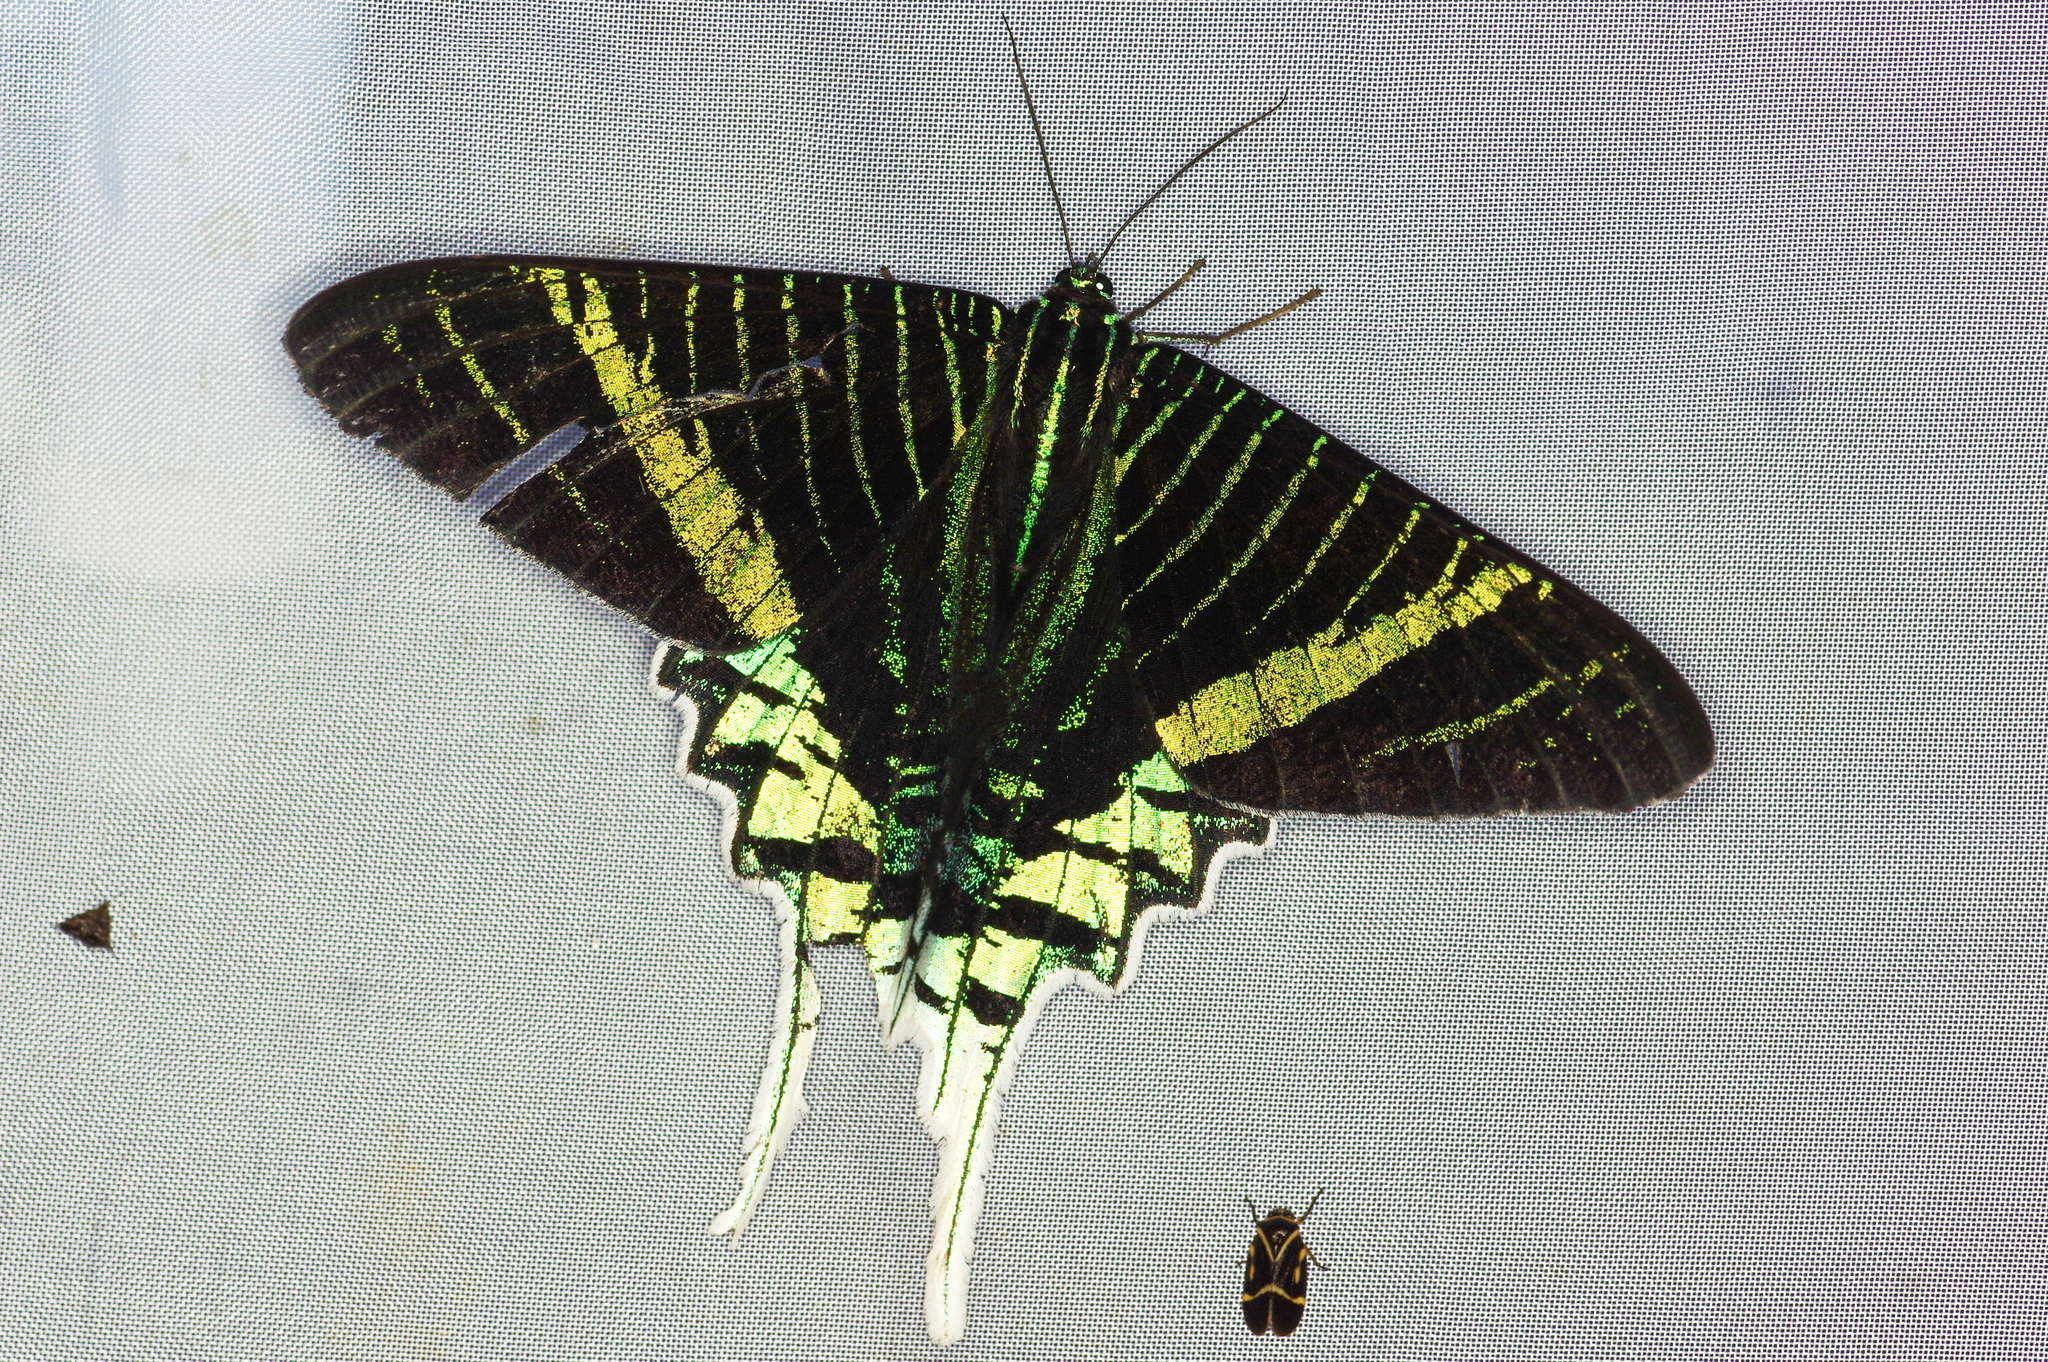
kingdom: Animalia
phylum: Arthropoda
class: Insecta
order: Lepidoptera
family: Uraniidae
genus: Urania
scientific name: Urania leilus
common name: Peacock moth
